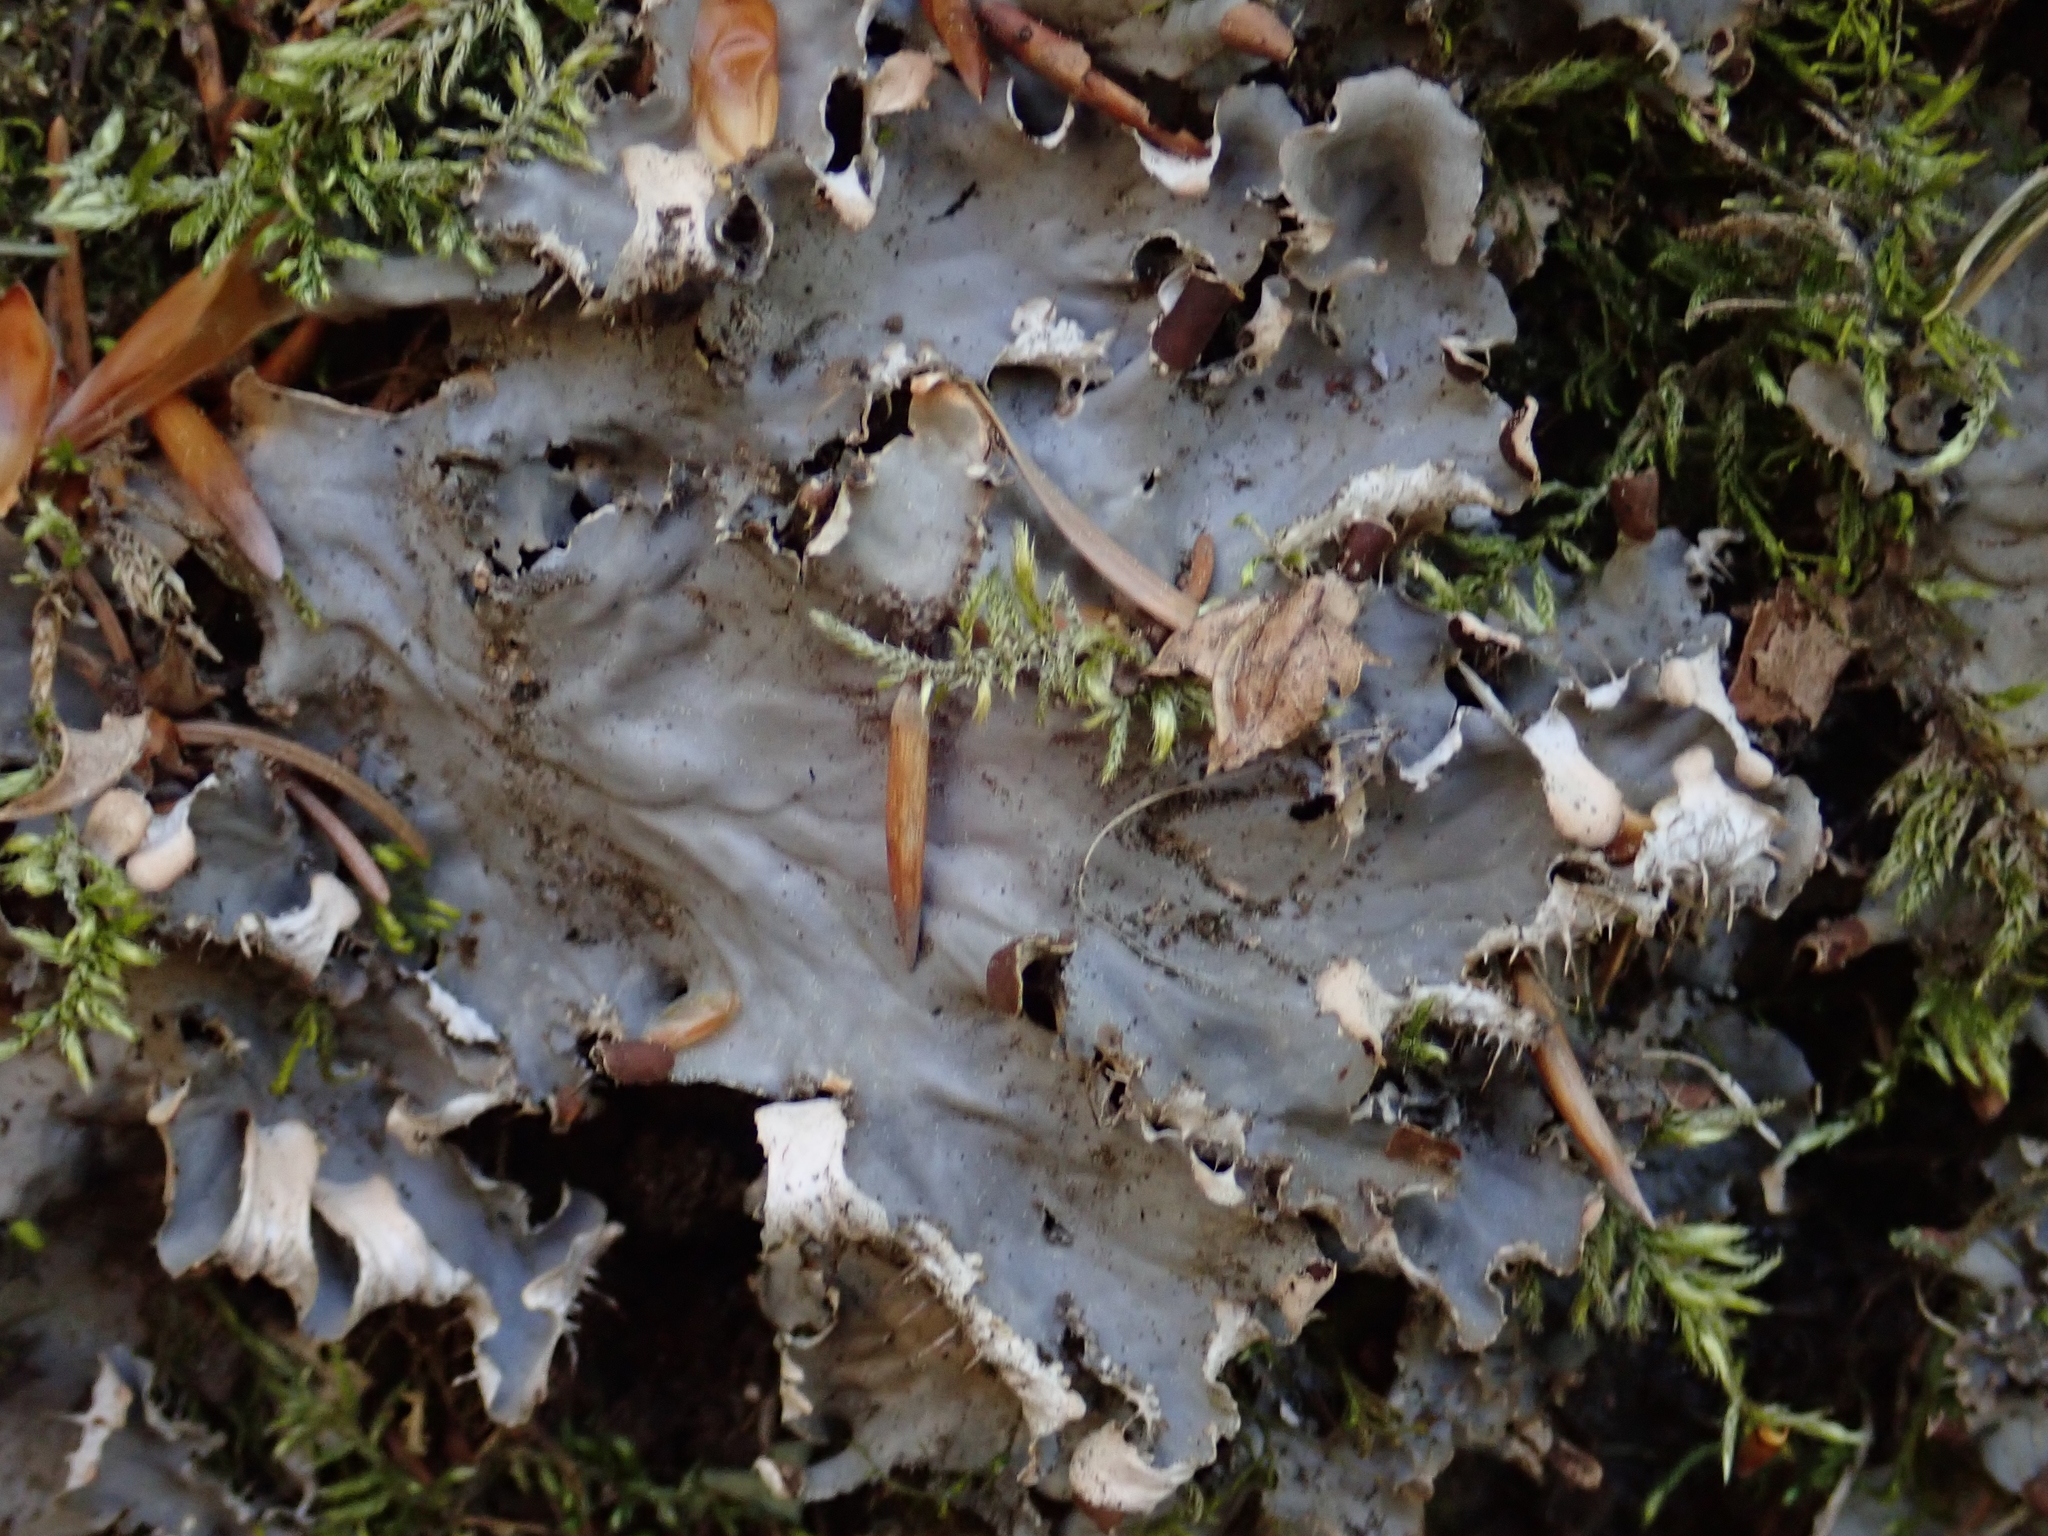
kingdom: Fungi
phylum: Ascomycota
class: Lecanoromycetes
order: Peltigerales
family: Peltigeraceae
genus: Peltigera
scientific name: Peltigera praetextata
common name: Scaly dog-lichen
